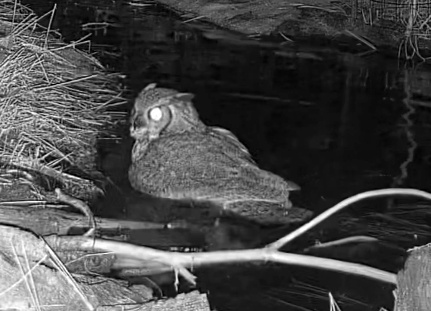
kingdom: Animalia
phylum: Chordata
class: Aves
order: Strigiformes
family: Strigidae
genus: Bubo
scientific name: Bubo virginianus
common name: Great horned owl
